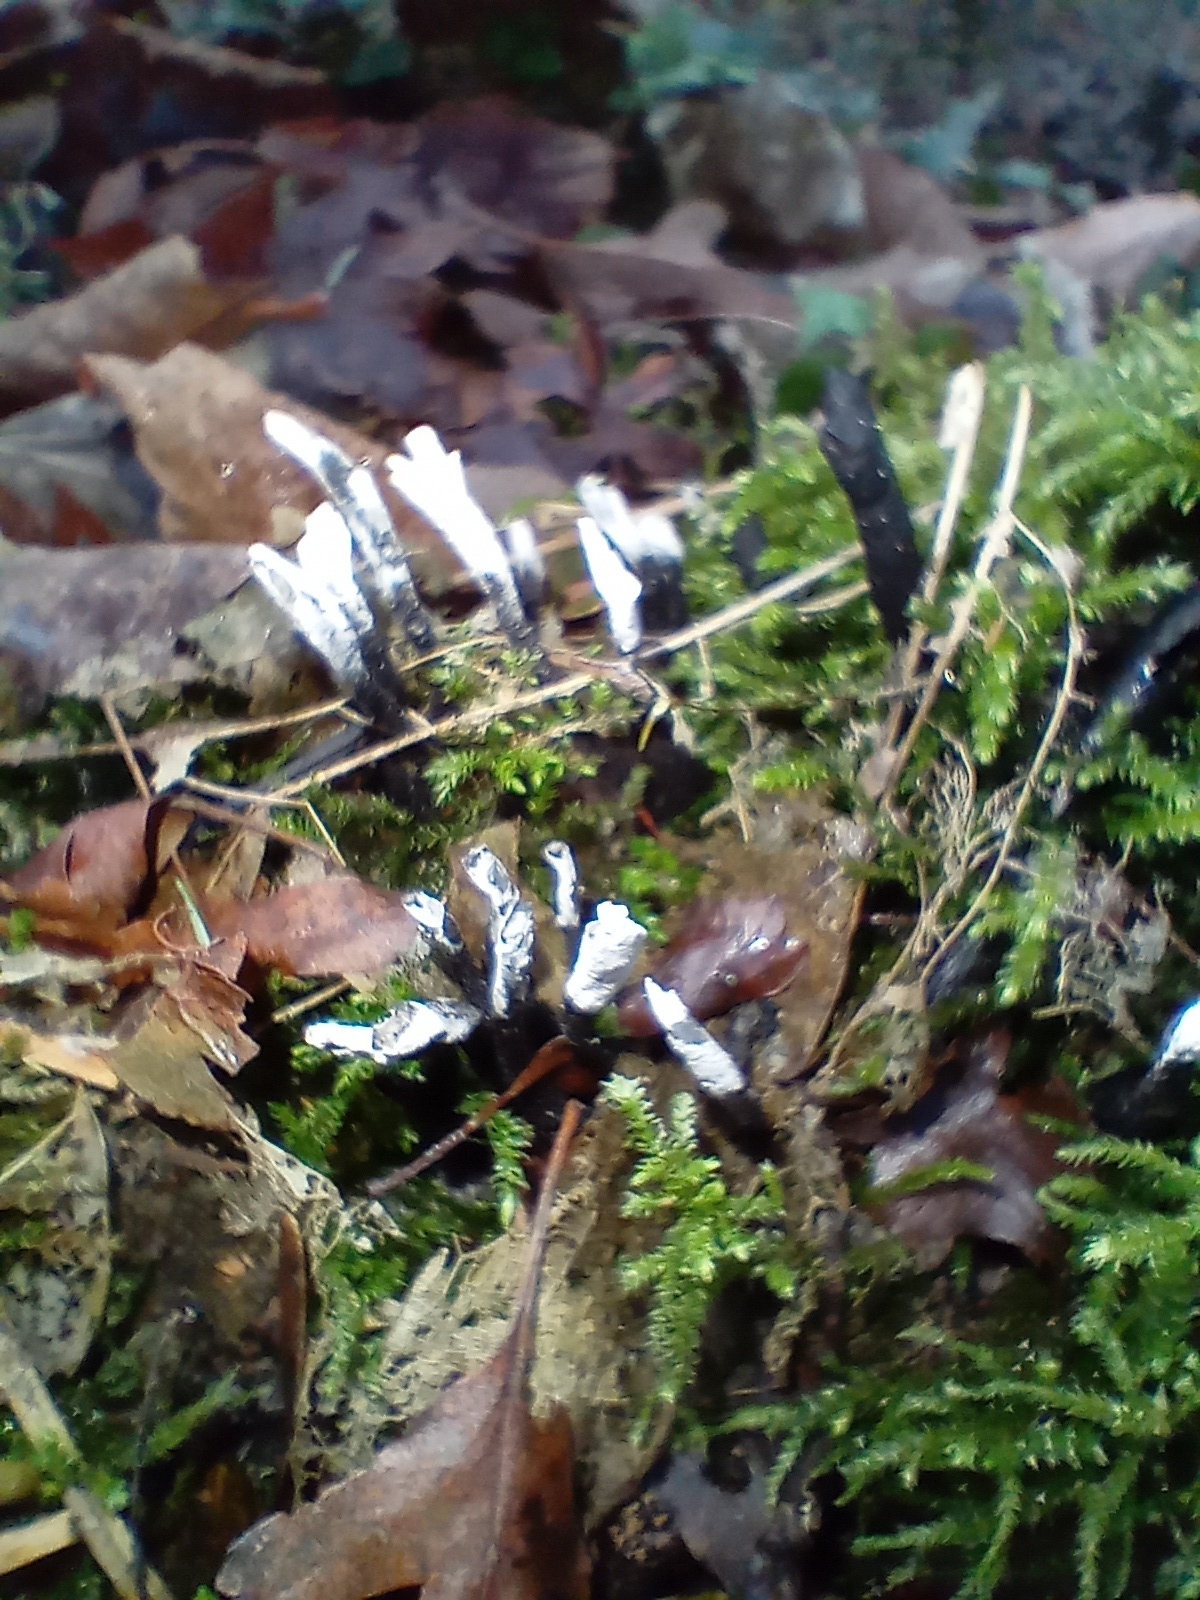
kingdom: Fungi
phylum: Ascomycota
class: Sordariomycetes
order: Xylariales
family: Xylariaceae
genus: Xylaria
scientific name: Xylaria hypoxylon
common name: Candle-snuff fungus
